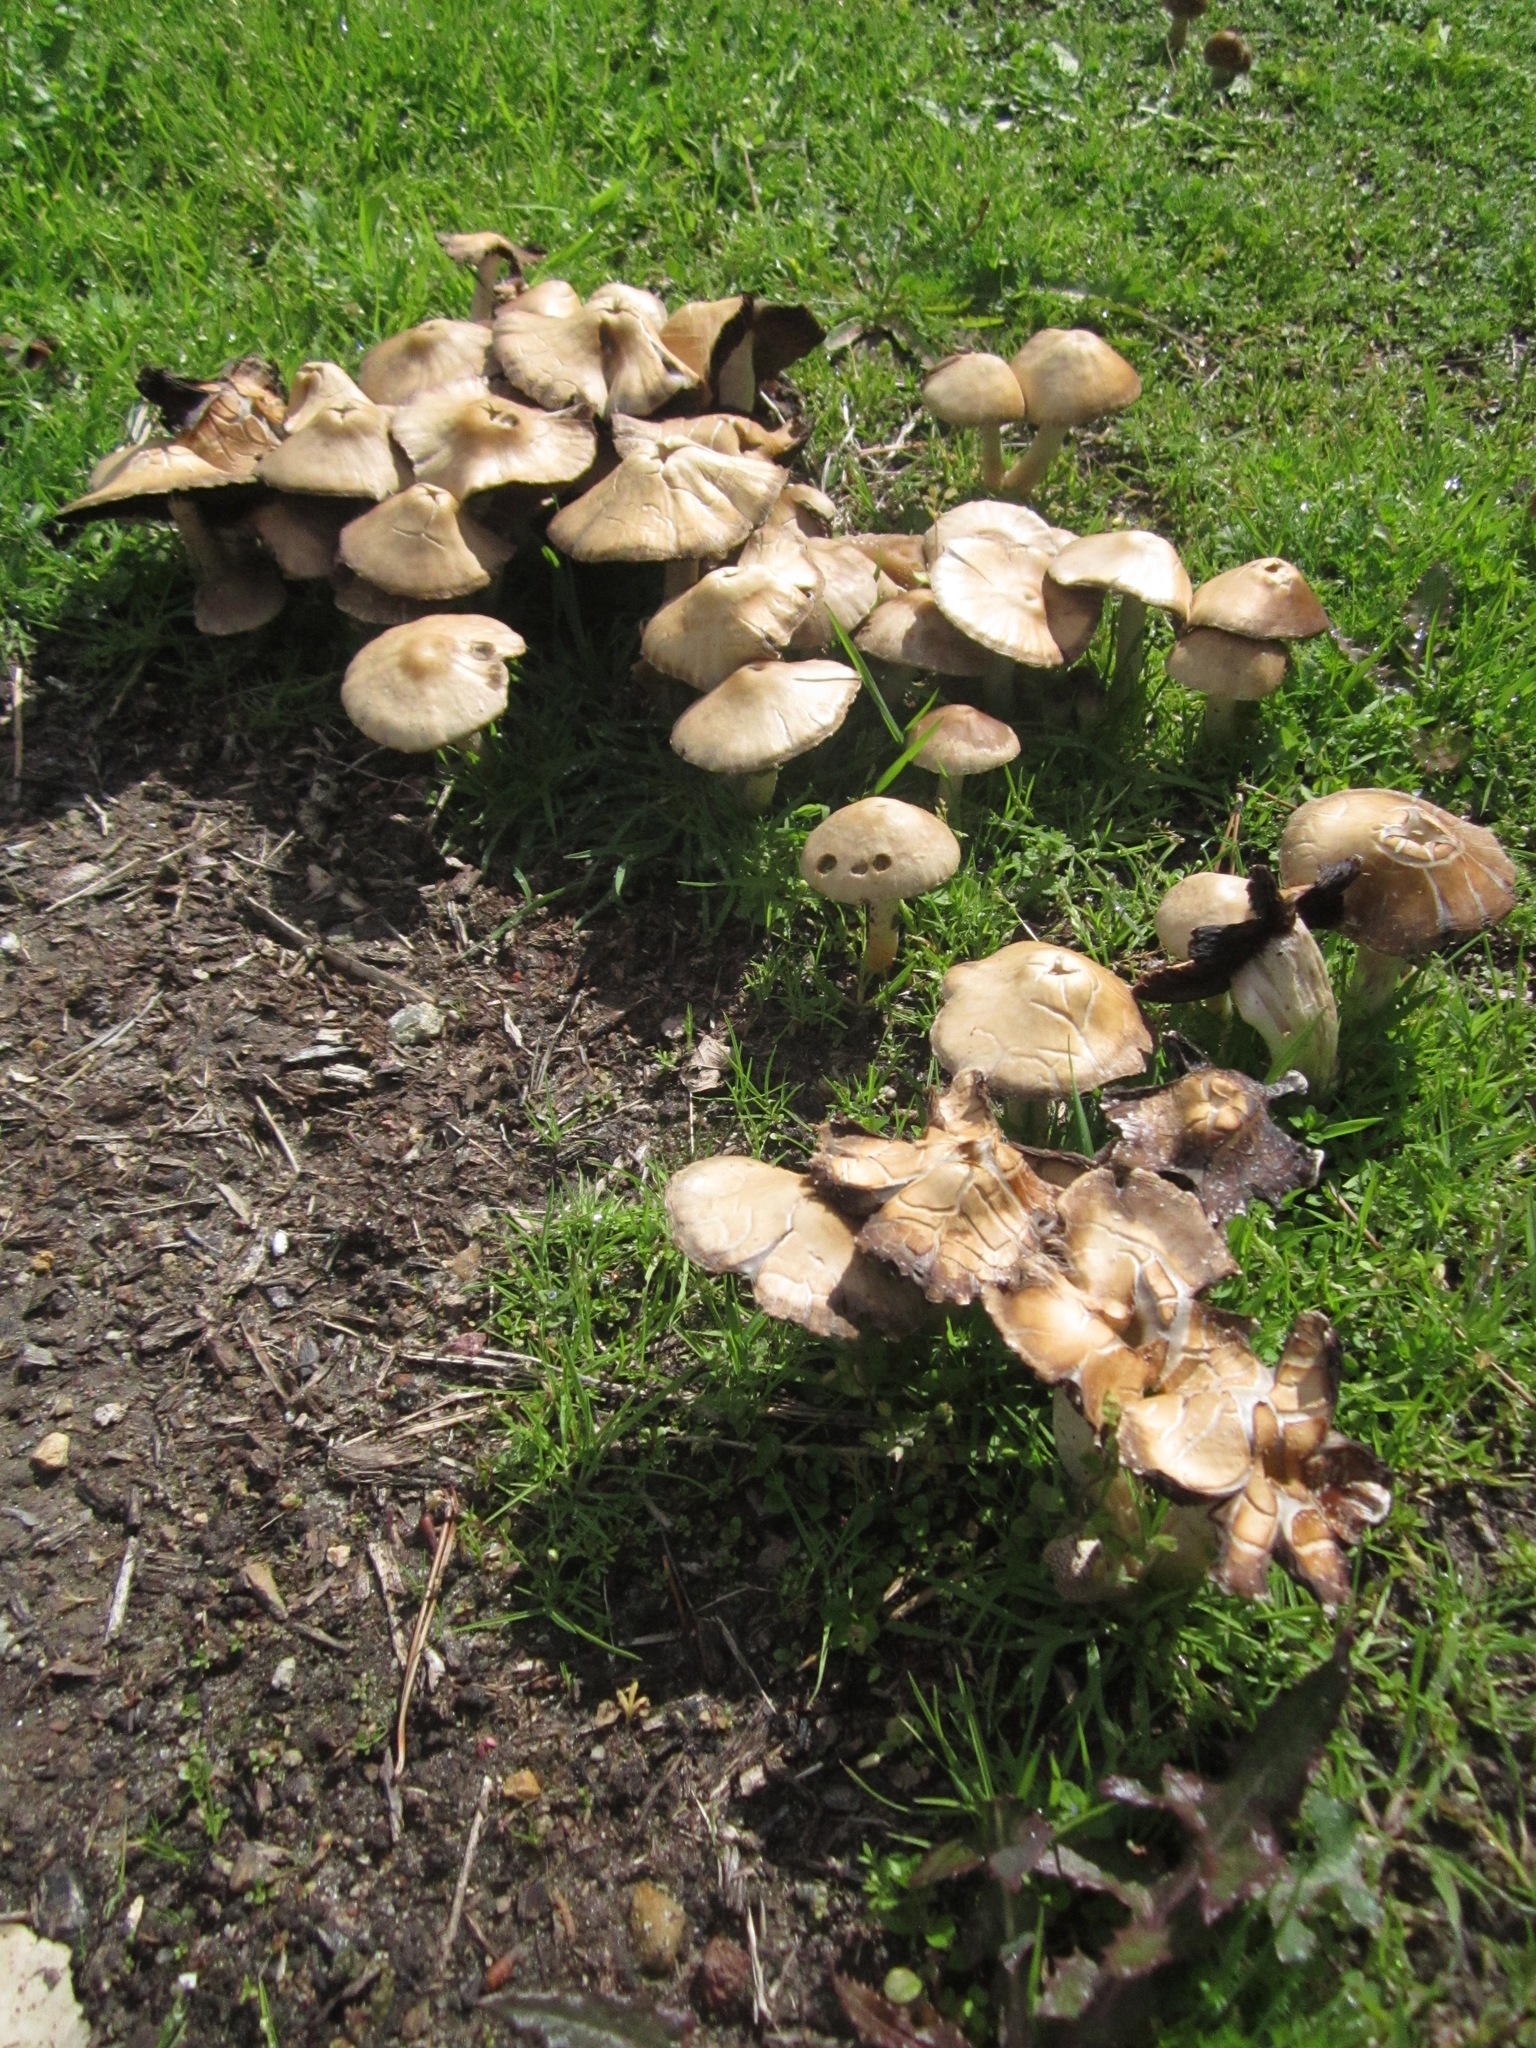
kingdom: Fungi
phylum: Basidiomycota
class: Agaricomycetes
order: Agaricales
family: Psathyrellaceae
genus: Candolleomyces
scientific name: Candolleomyces candolleanus
